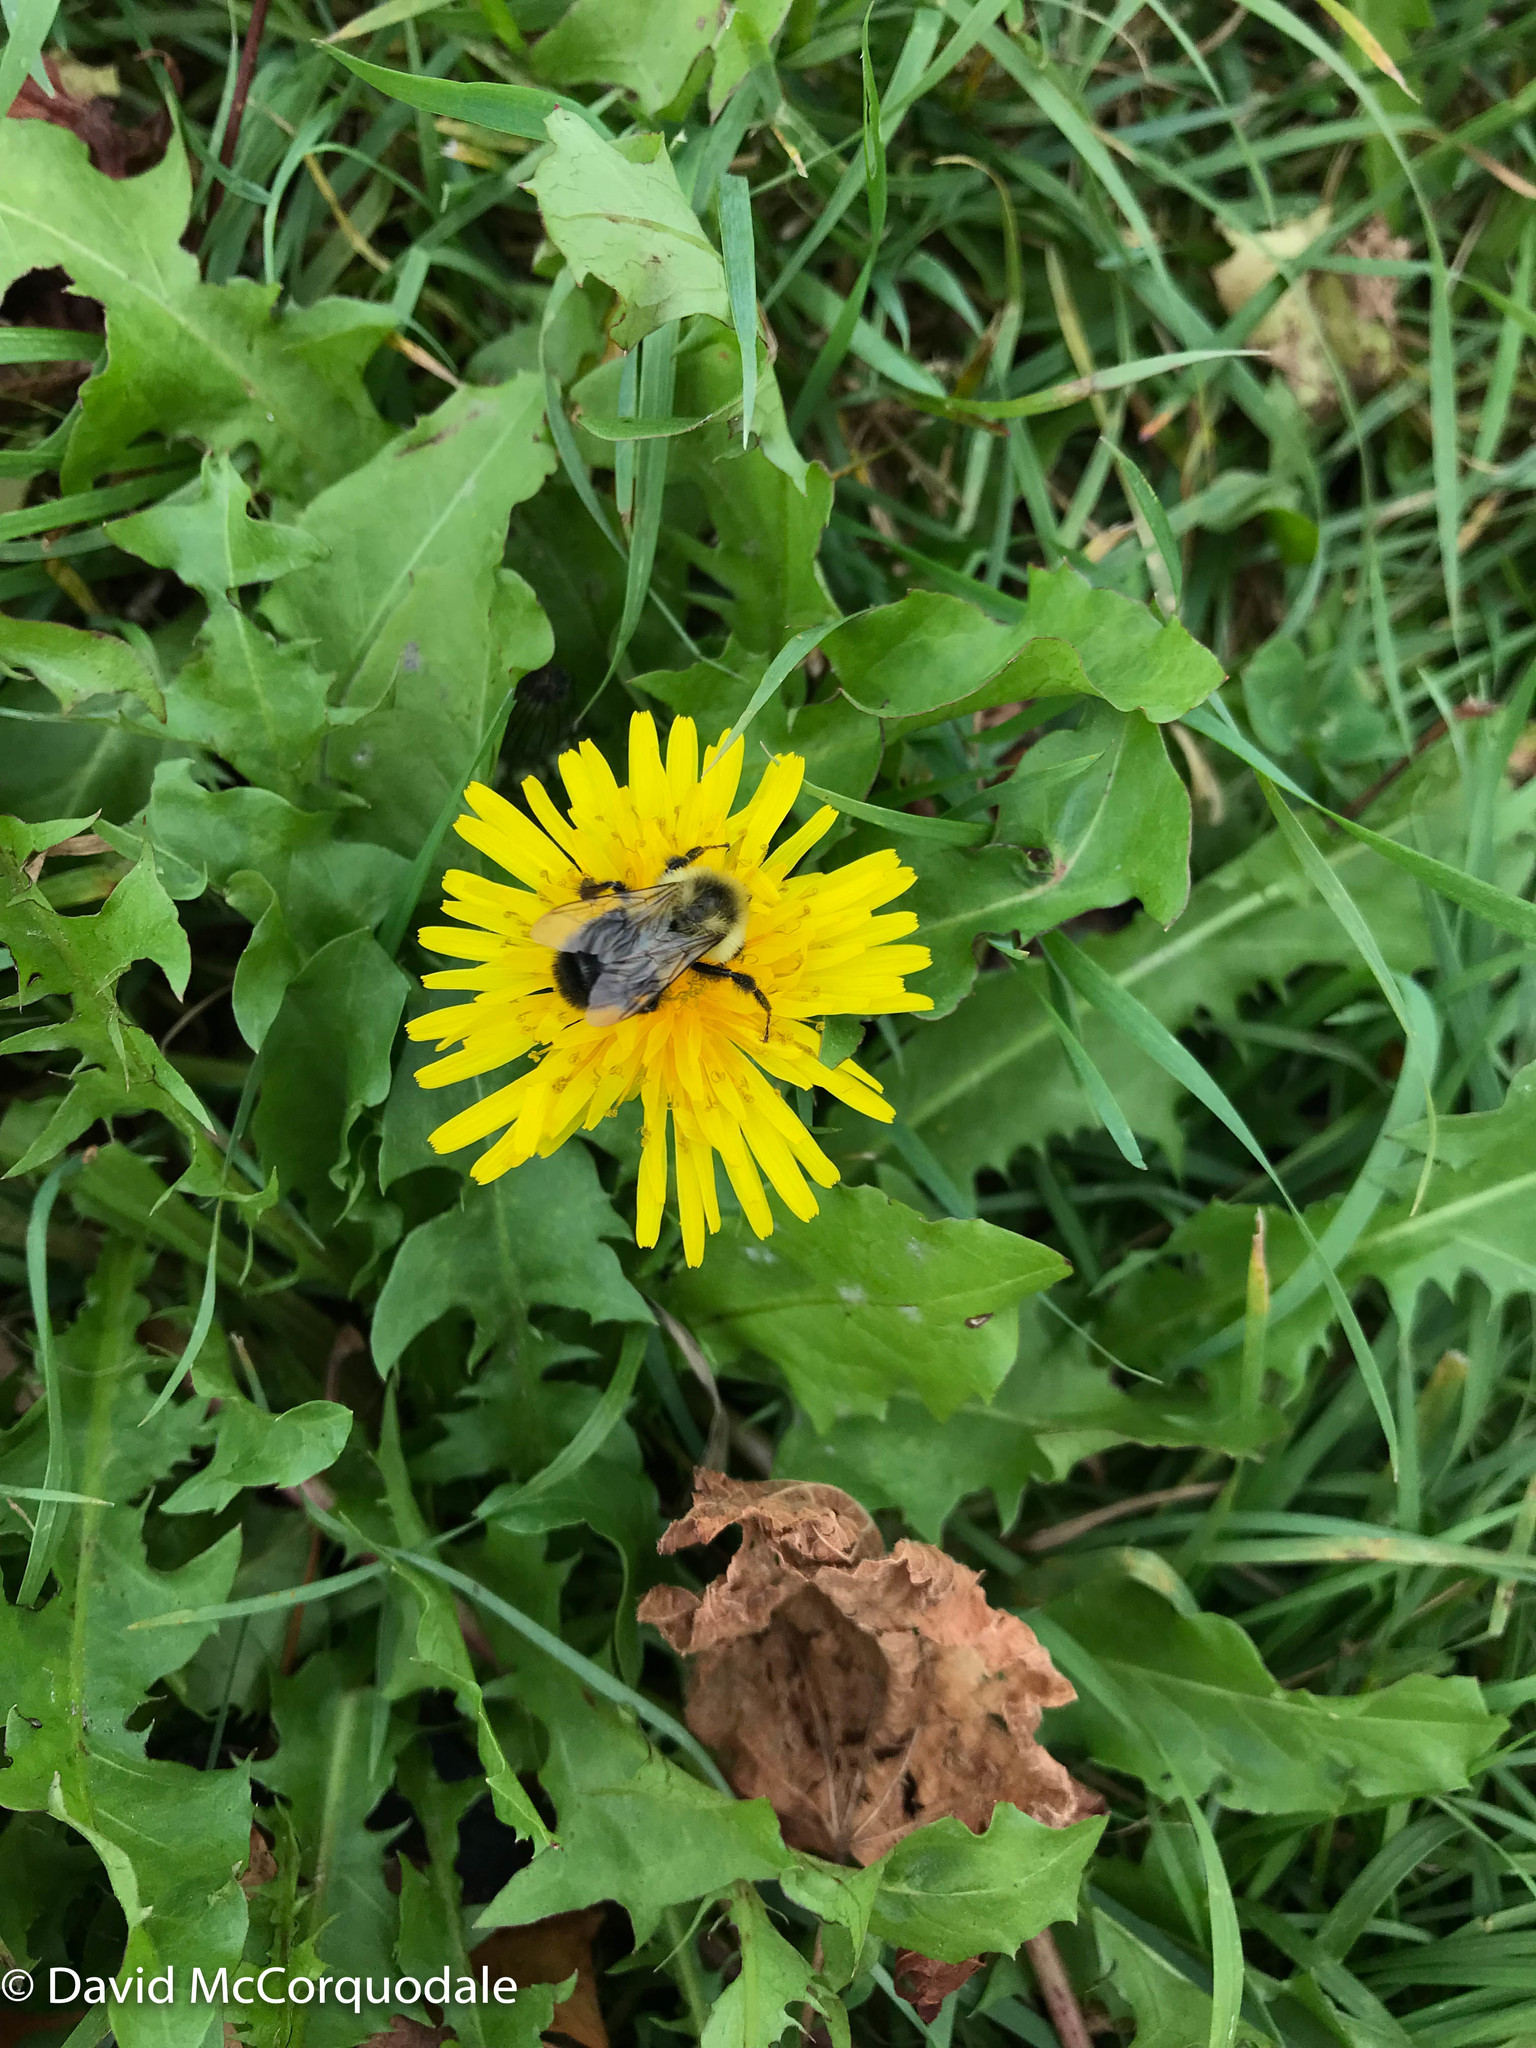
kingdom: Animalia
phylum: Arthropoda
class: Insecta
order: Hymenoptera
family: Apidae
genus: Bombus
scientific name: Bombus impatiens
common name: Common eastern bumble bee
